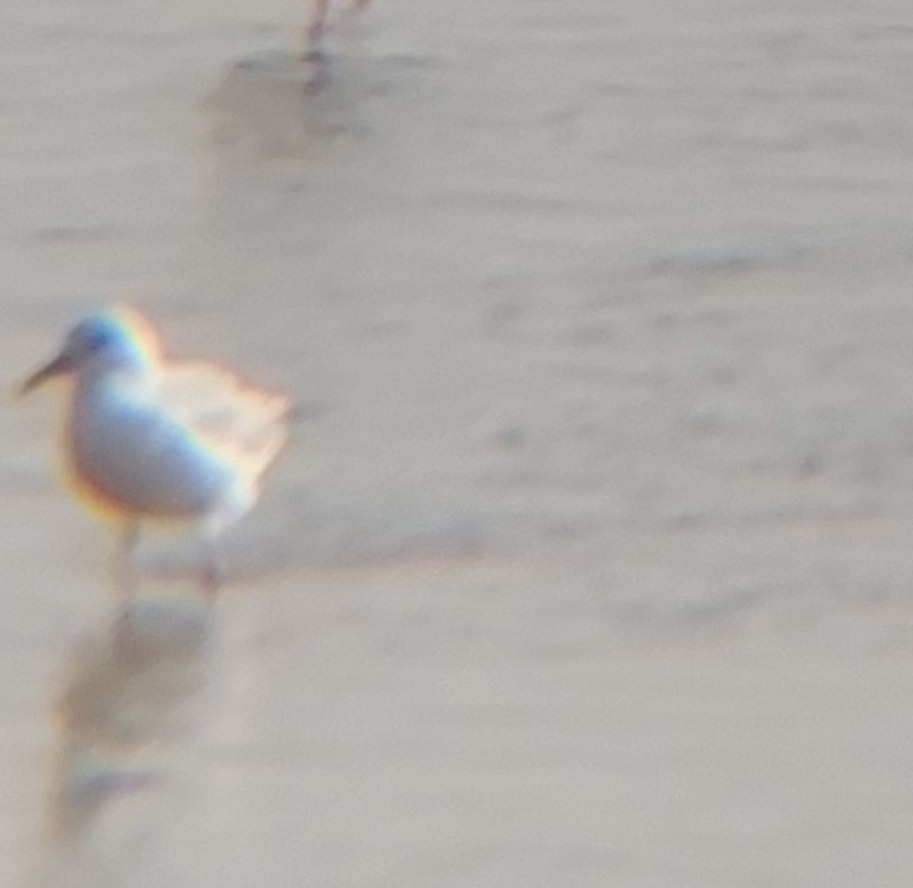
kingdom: Animalia
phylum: Chordata
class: Aves
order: Charadriiformes
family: Laridae
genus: Chroicocephalus
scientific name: Chroicocephalus genei
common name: Slender-billed gull
